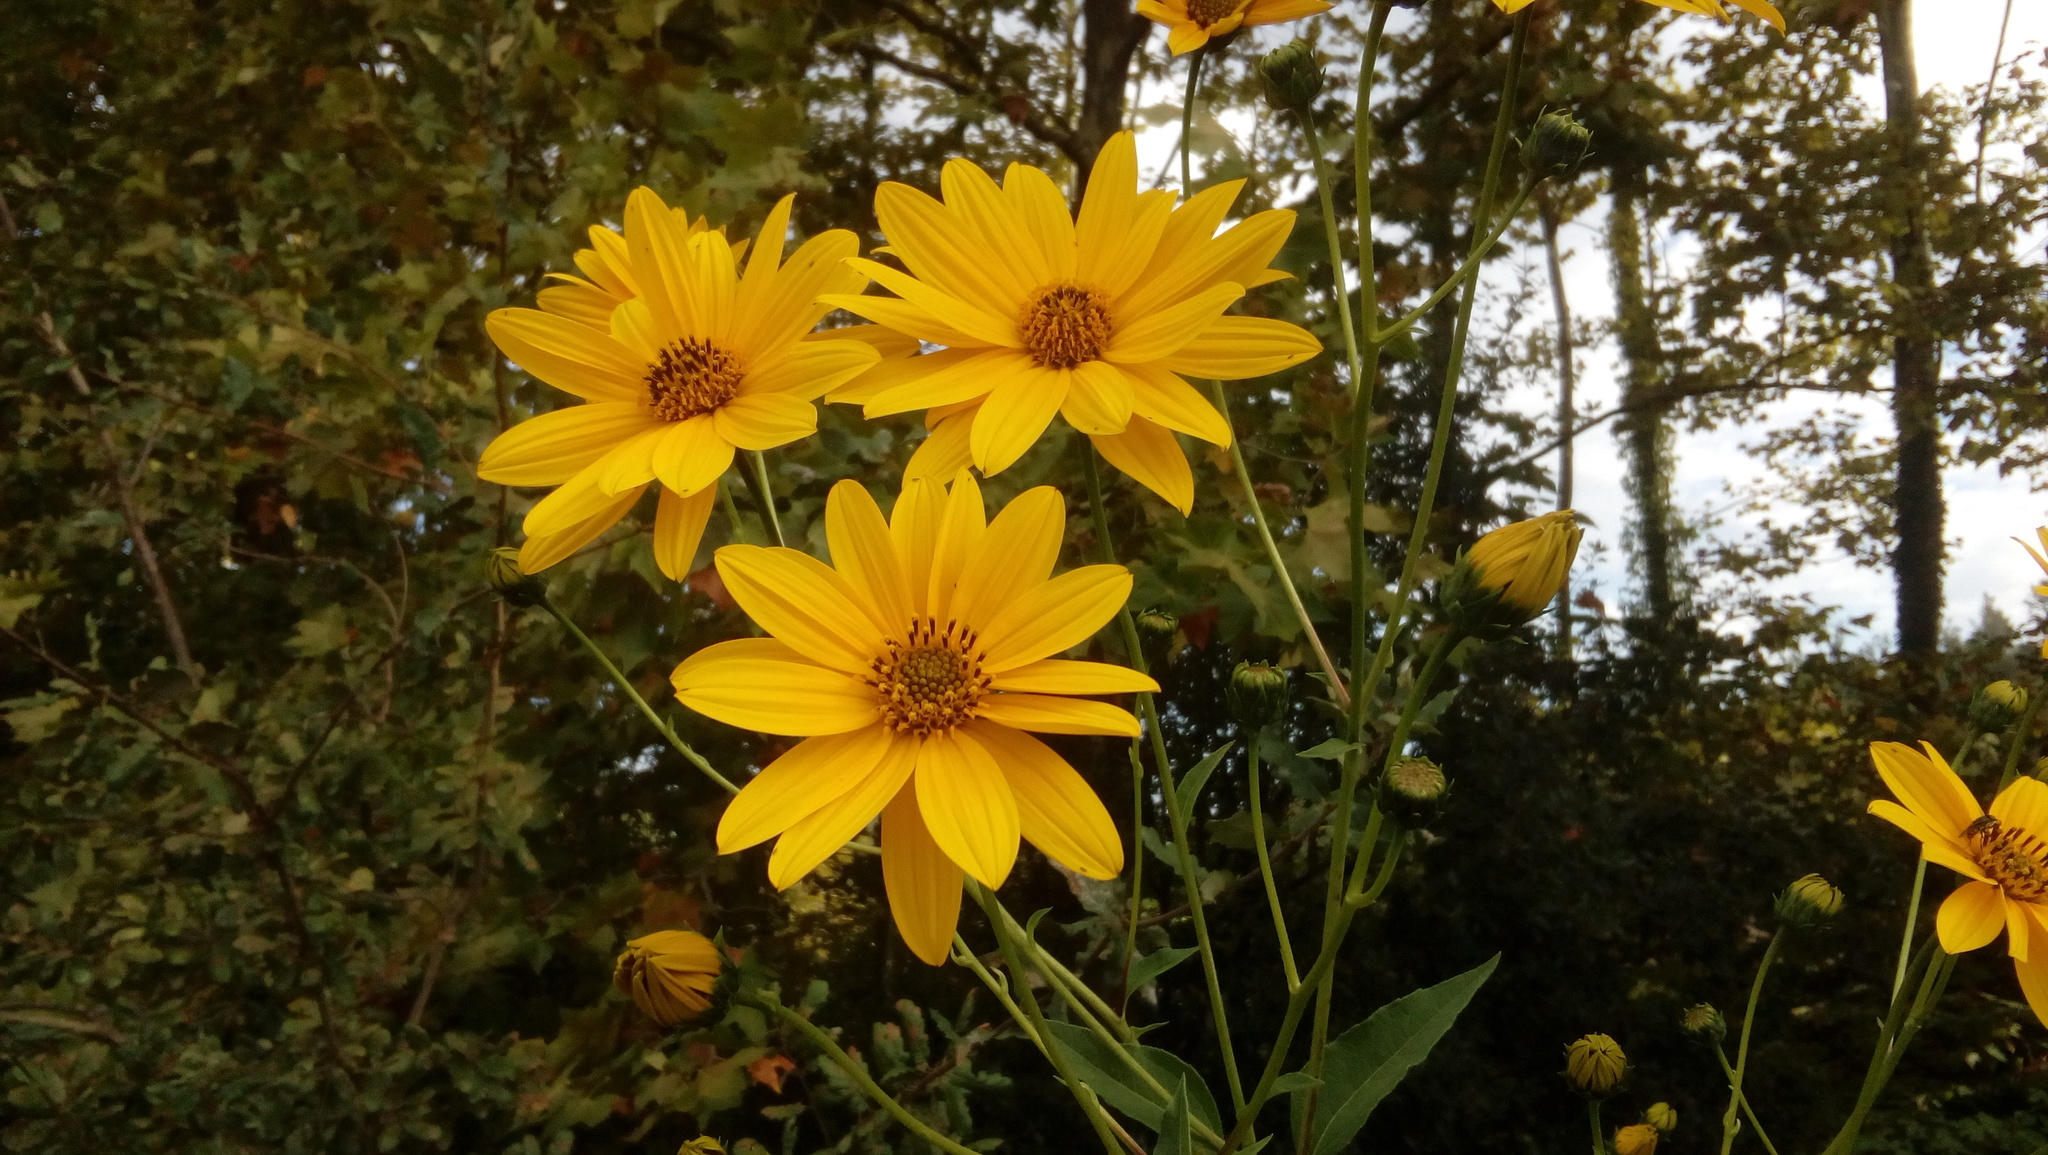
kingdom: Plantae
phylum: Tracheophyta
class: Magnoliopsida
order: Asterales
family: Asteraceae
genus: Helianthus
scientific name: Helianthus tuberosus
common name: Jerusalem artichoke
